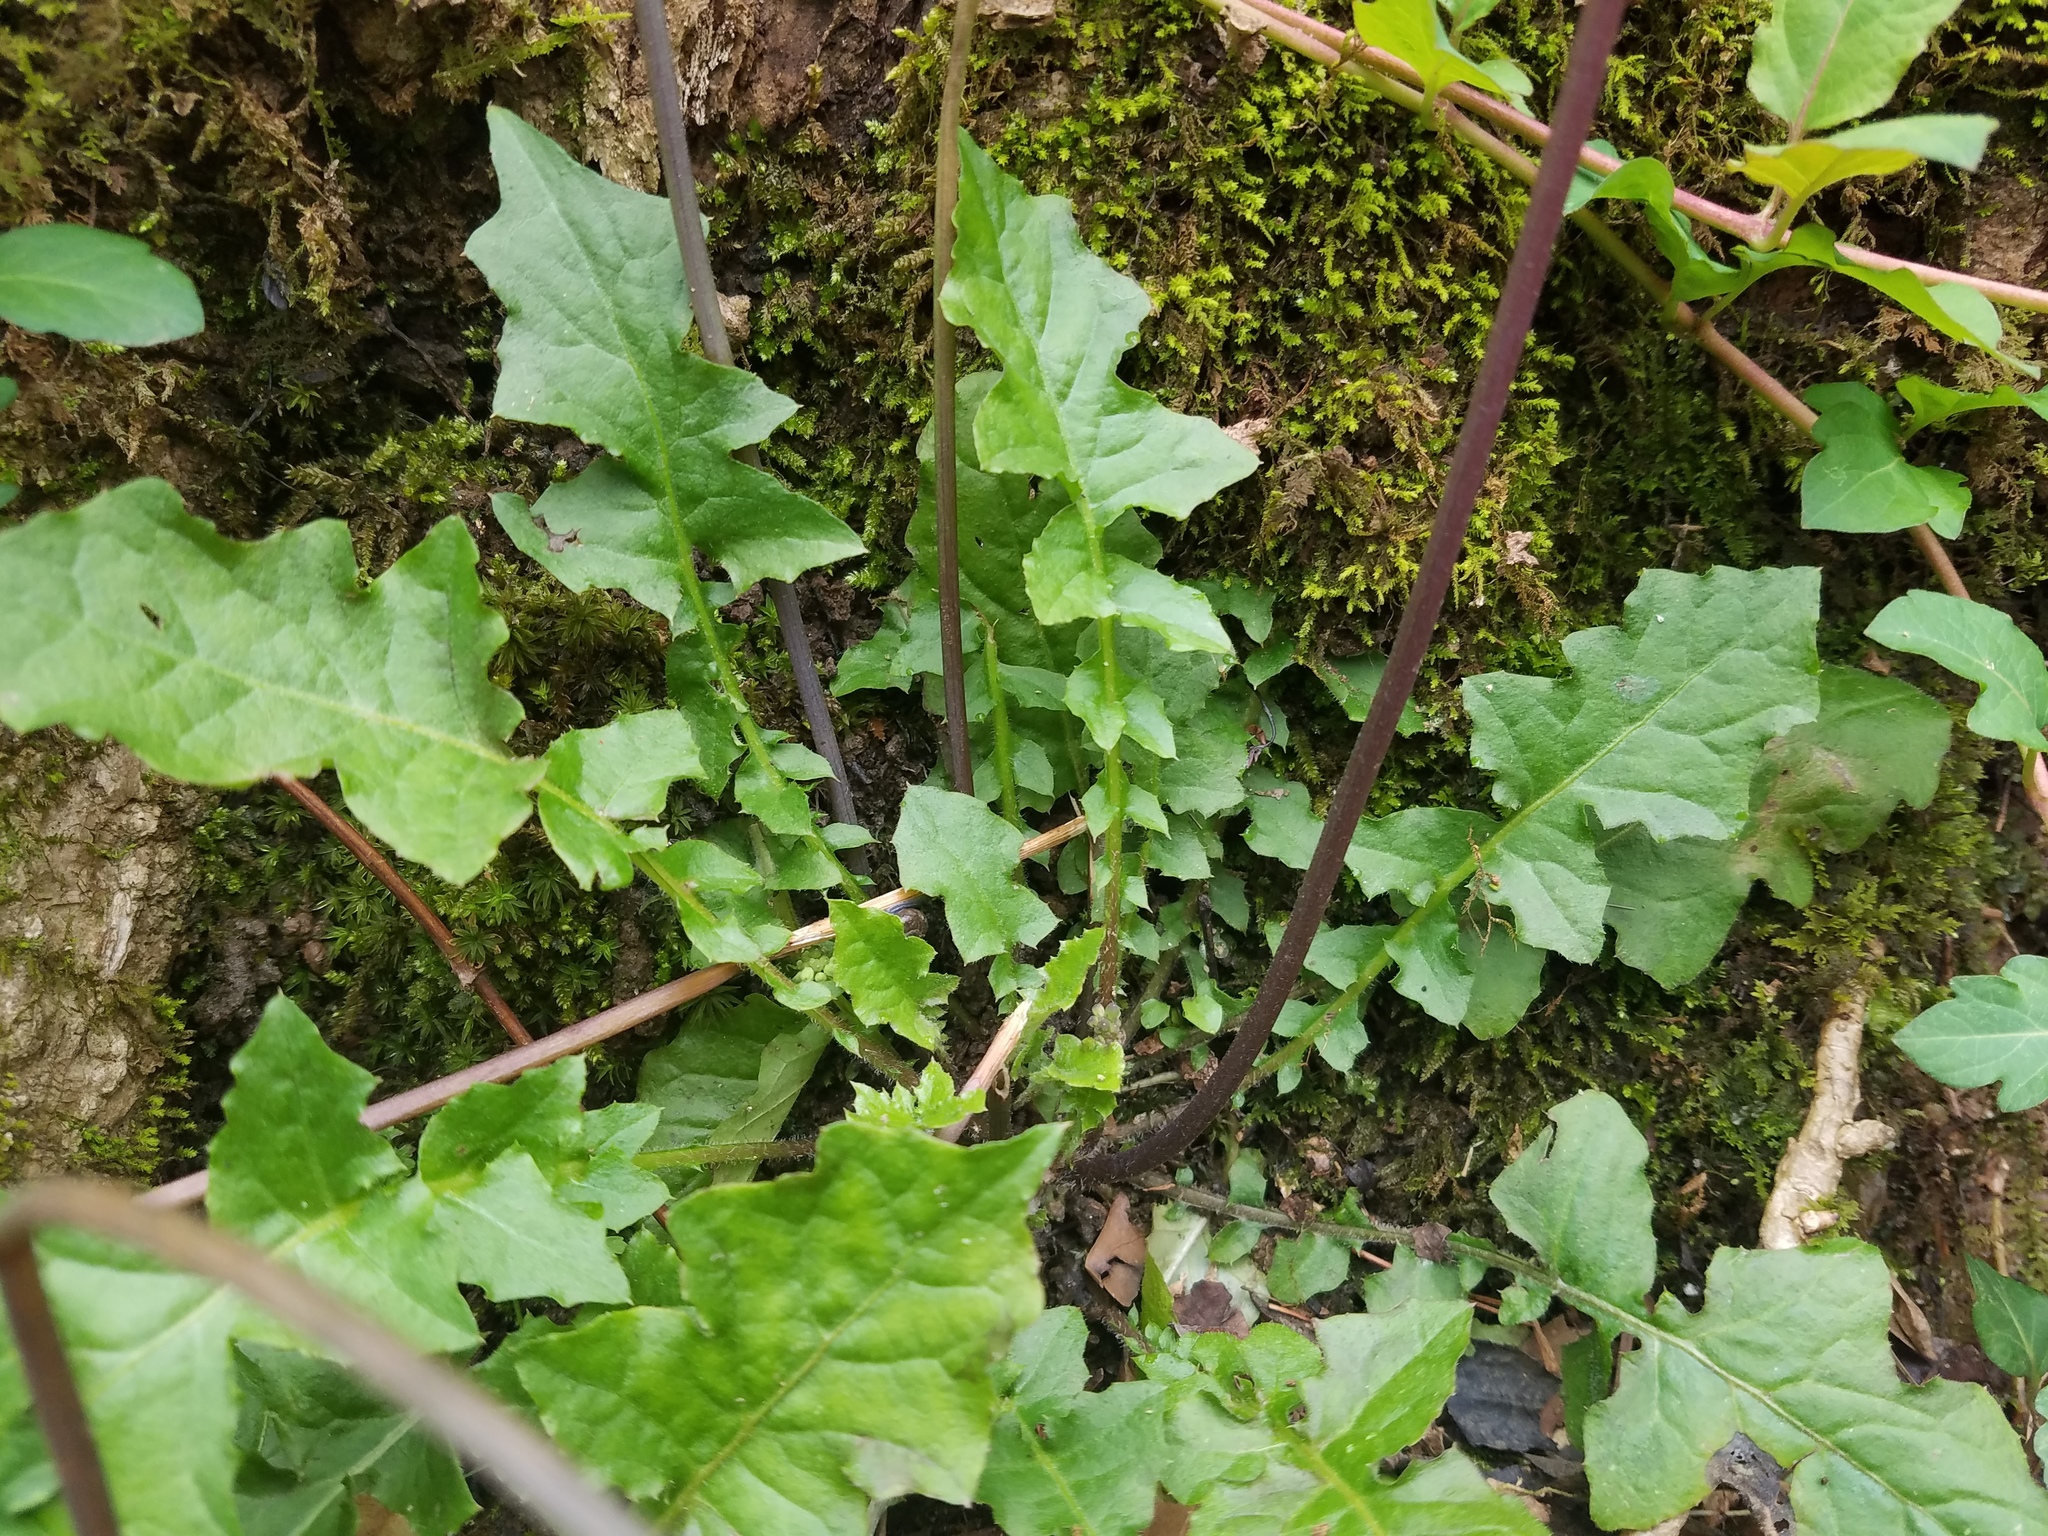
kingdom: Plantae
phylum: Tracheophyta
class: Magnoliopsida
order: Asterales
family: Asteraceae
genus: Youngia
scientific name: Youngia japonica
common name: Oriental false hawksbeard
